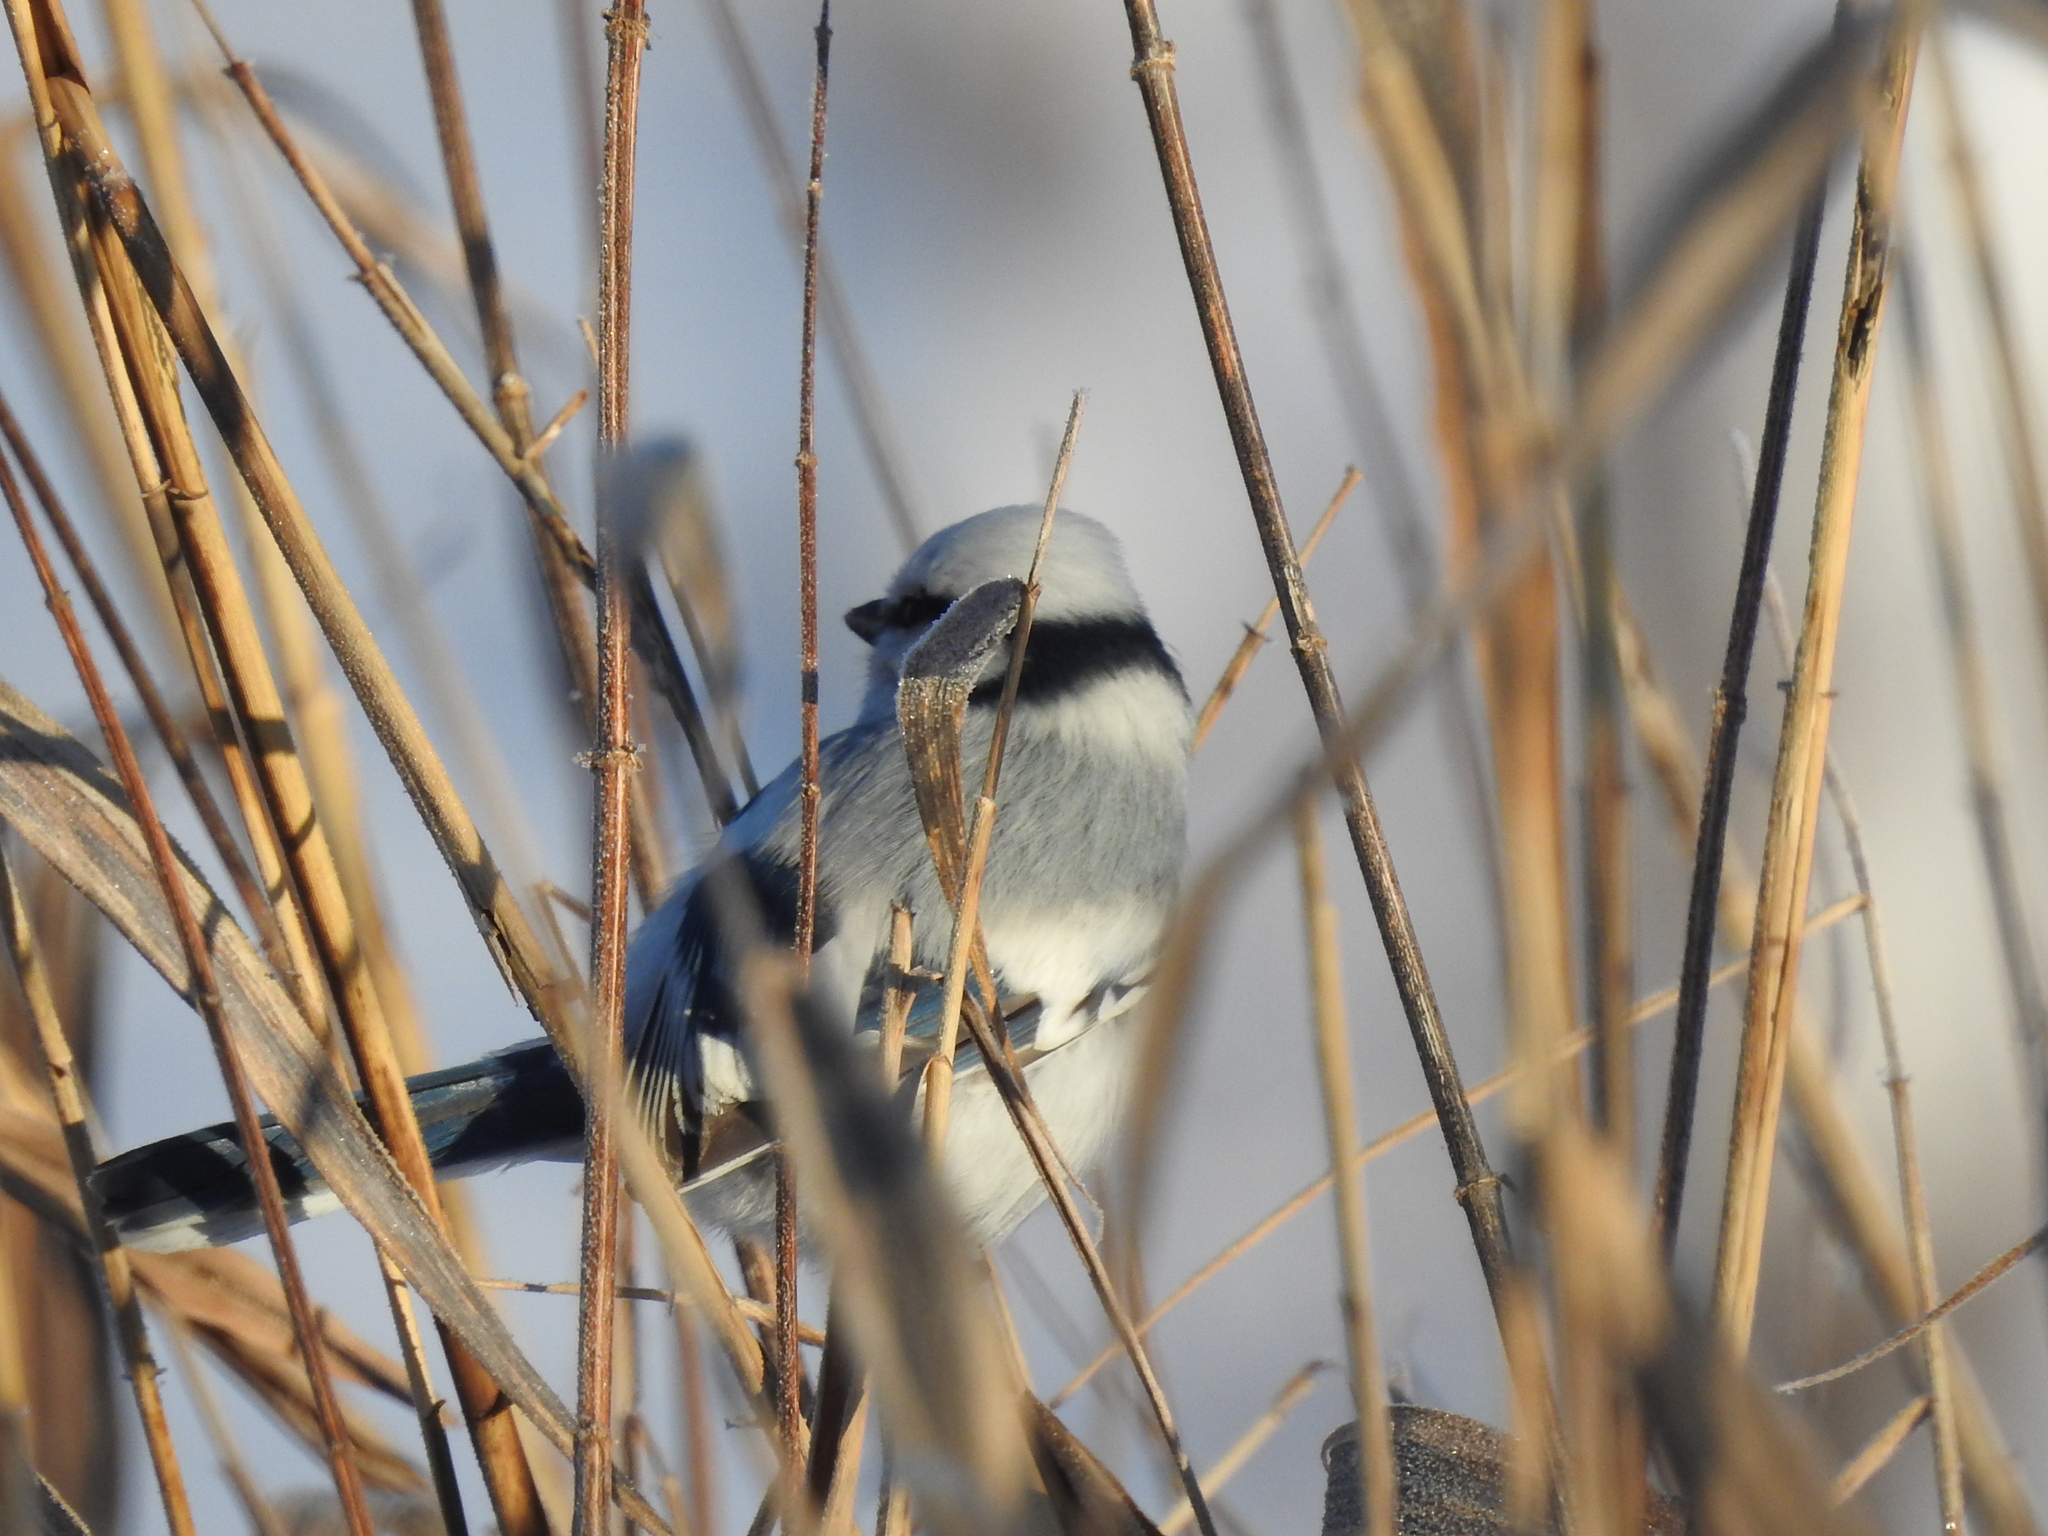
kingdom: Animalia
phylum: Chordata
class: Aves
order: Passeriformes
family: Paridae
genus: Cyanistes
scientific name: Cyanistes cyanus
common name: Azure tit
